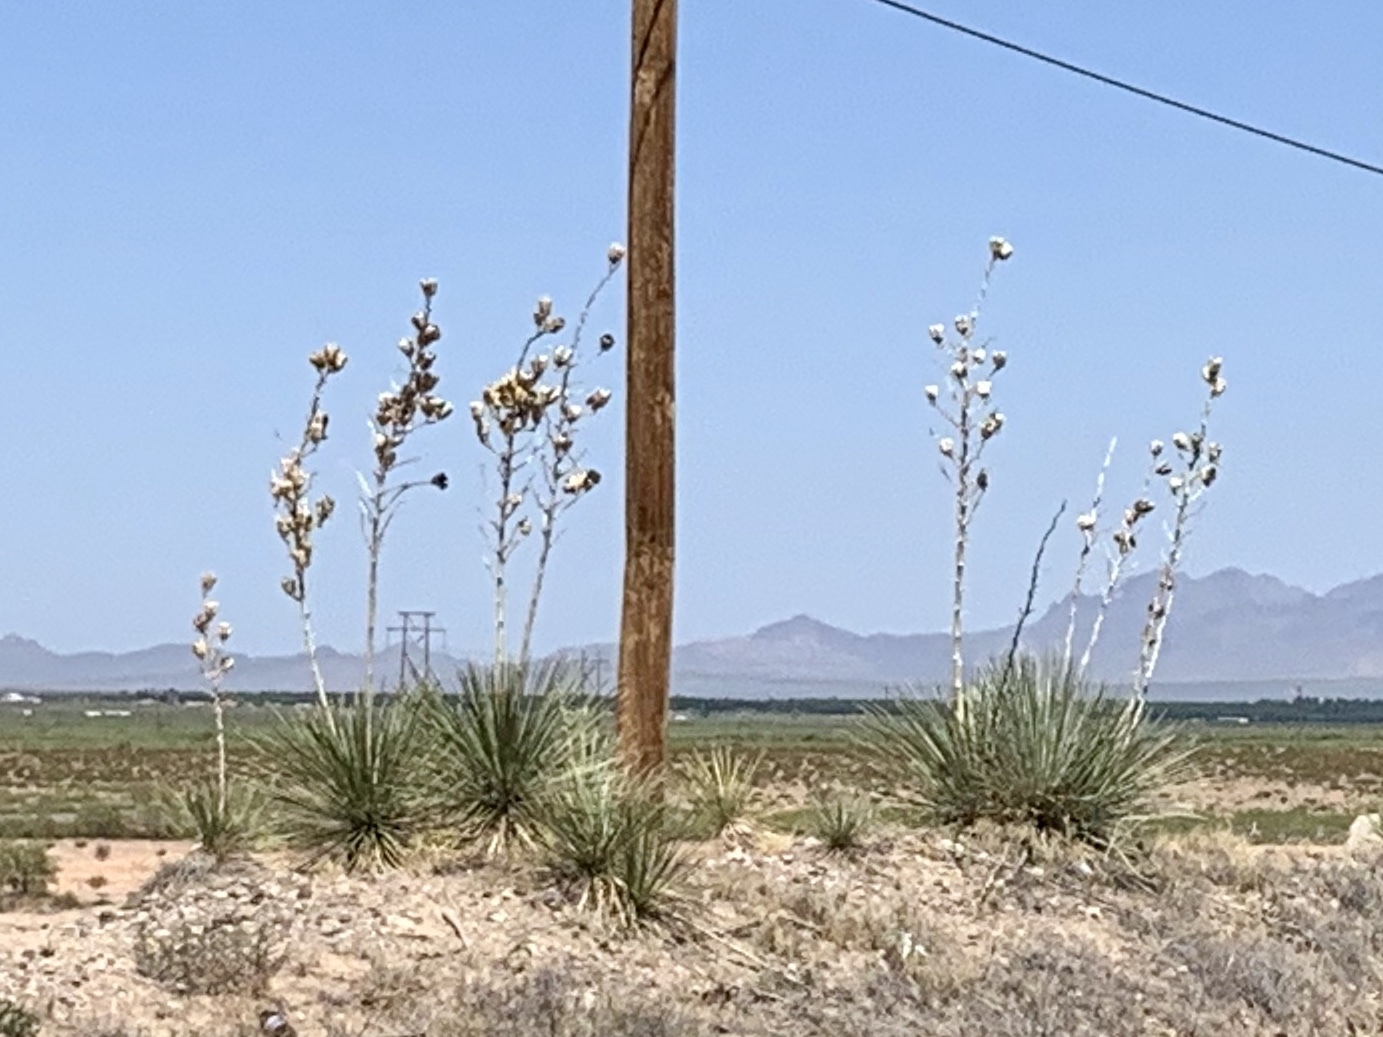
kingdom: Plantae
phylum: Tracheophyta
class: Liliopsida
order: Asparagales
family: Asparagaceae
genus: Yucca
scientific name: Yucca elata
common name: Palmella
